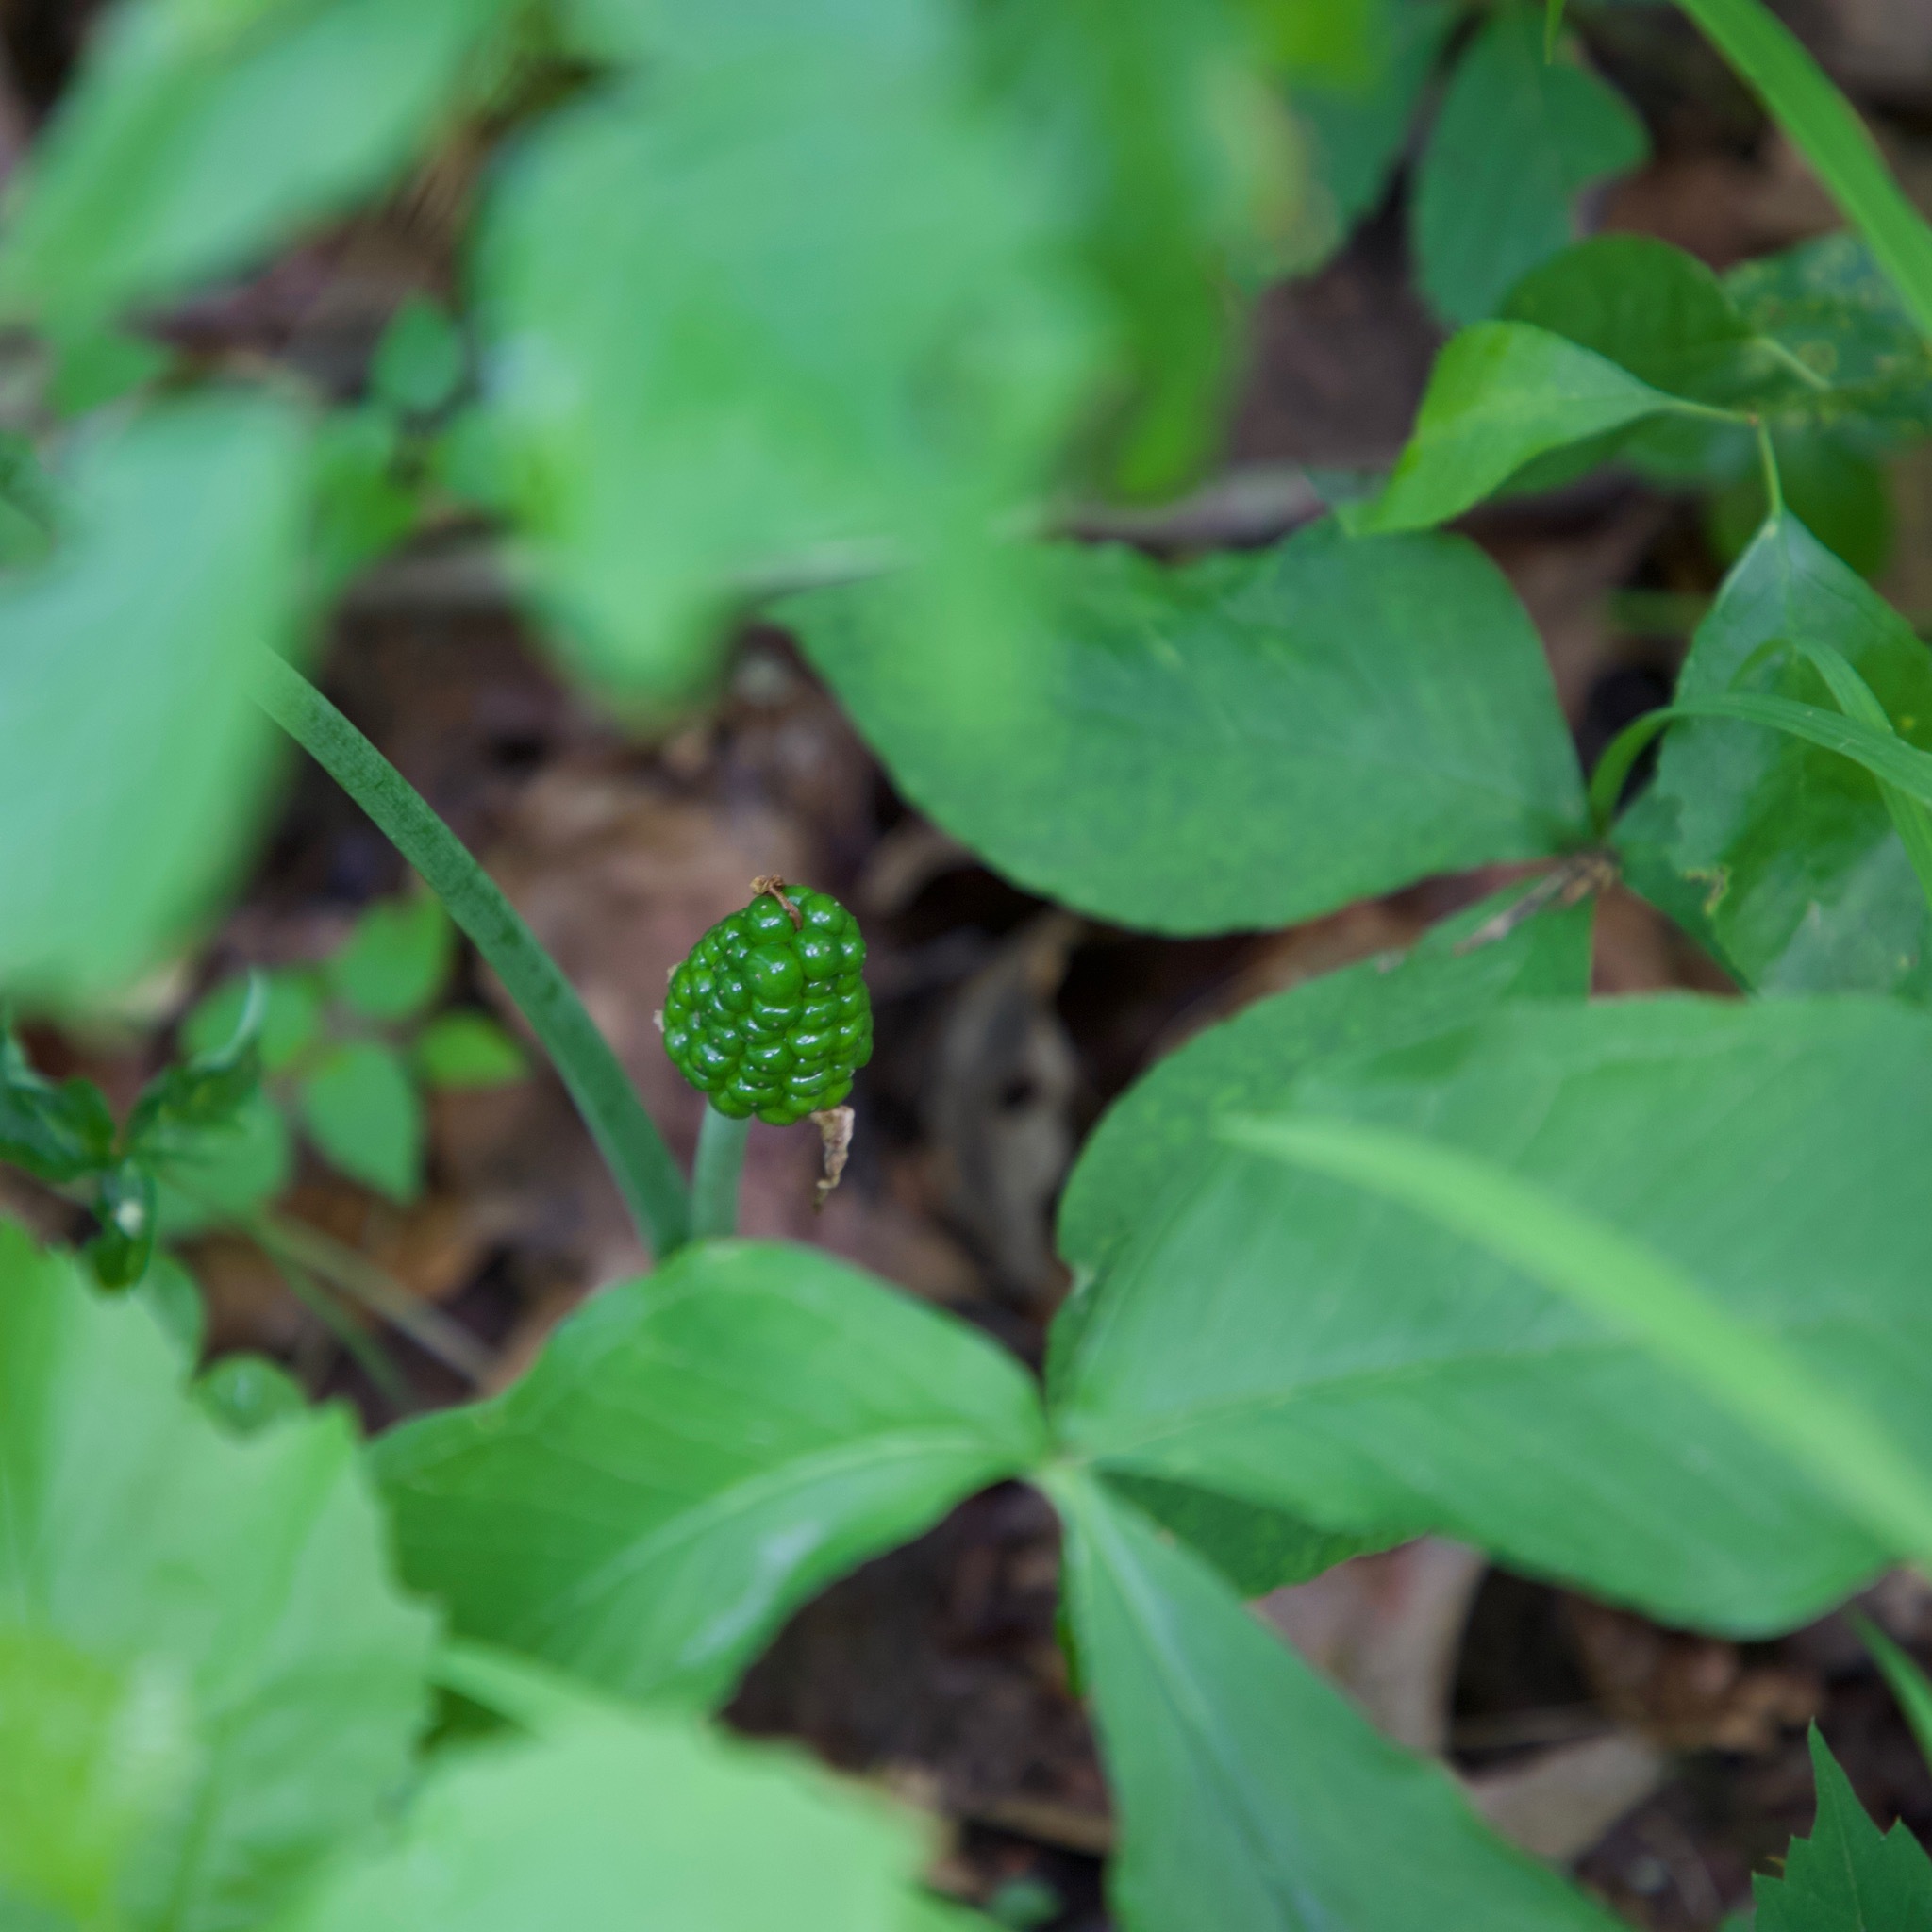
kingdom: Plantae
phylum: Tracheophyta
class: Liliopsida
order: Alismatales
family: Araceae
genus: Arisaema
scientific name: Arisaema triphyllum
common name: Jack-in-the-pulpit
